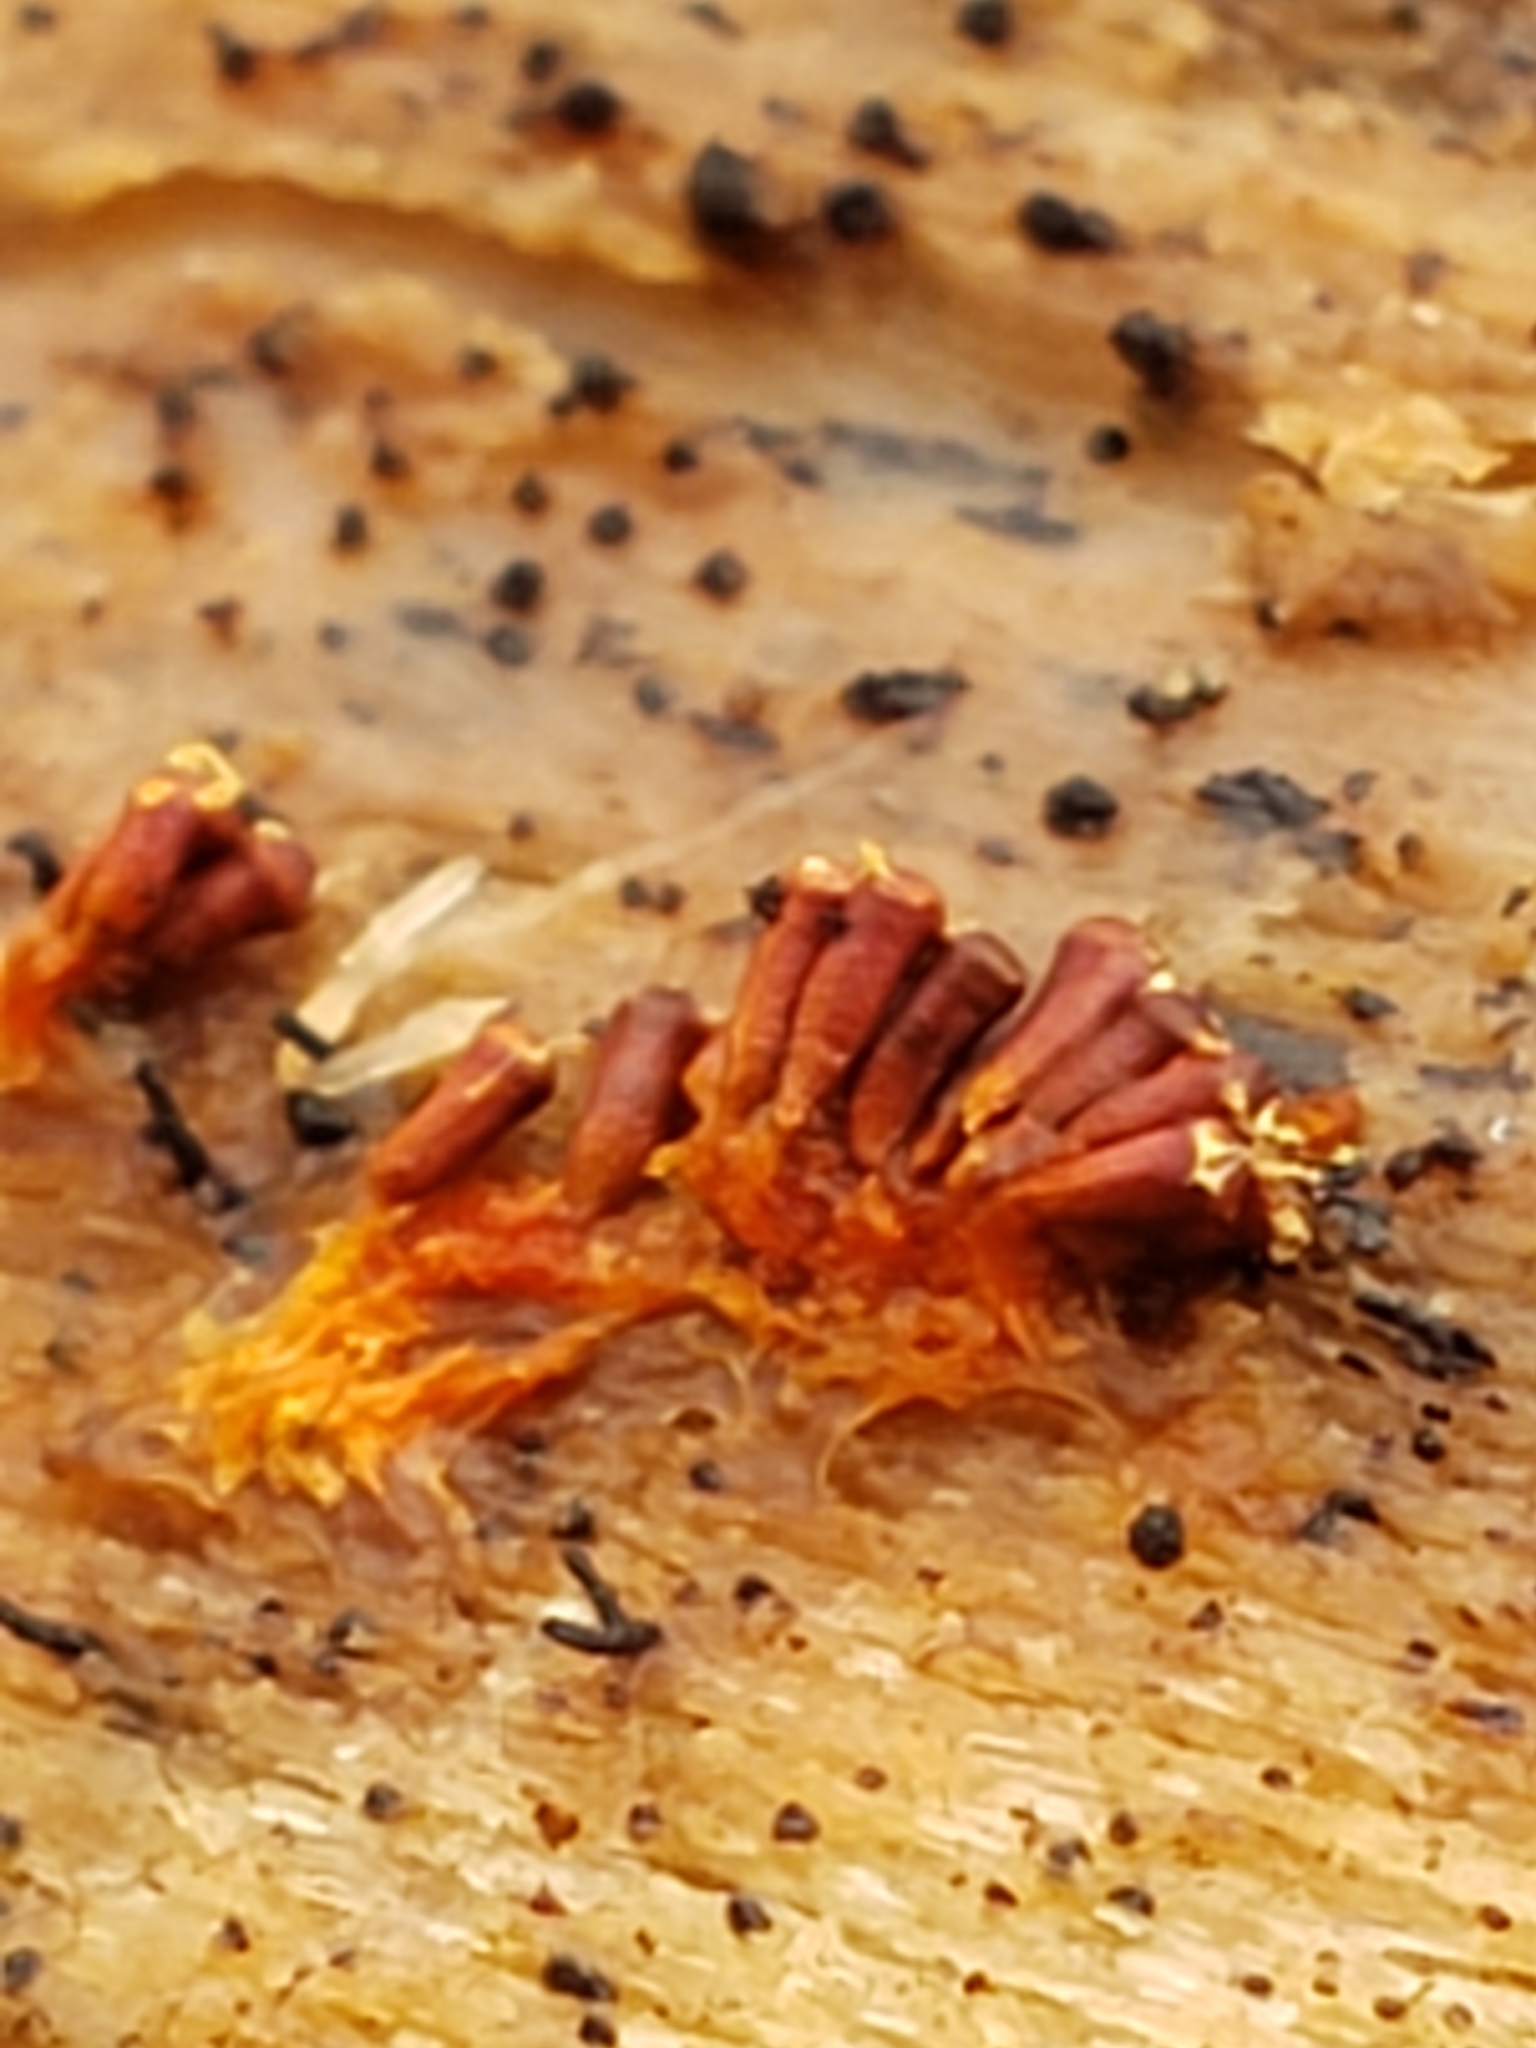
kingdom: Protozoa
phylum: Mycetozoa
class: Myxomycetes
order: Trichiales
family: Trichiaceae
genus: Metatrichia
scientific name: Metatrichia vesparia
